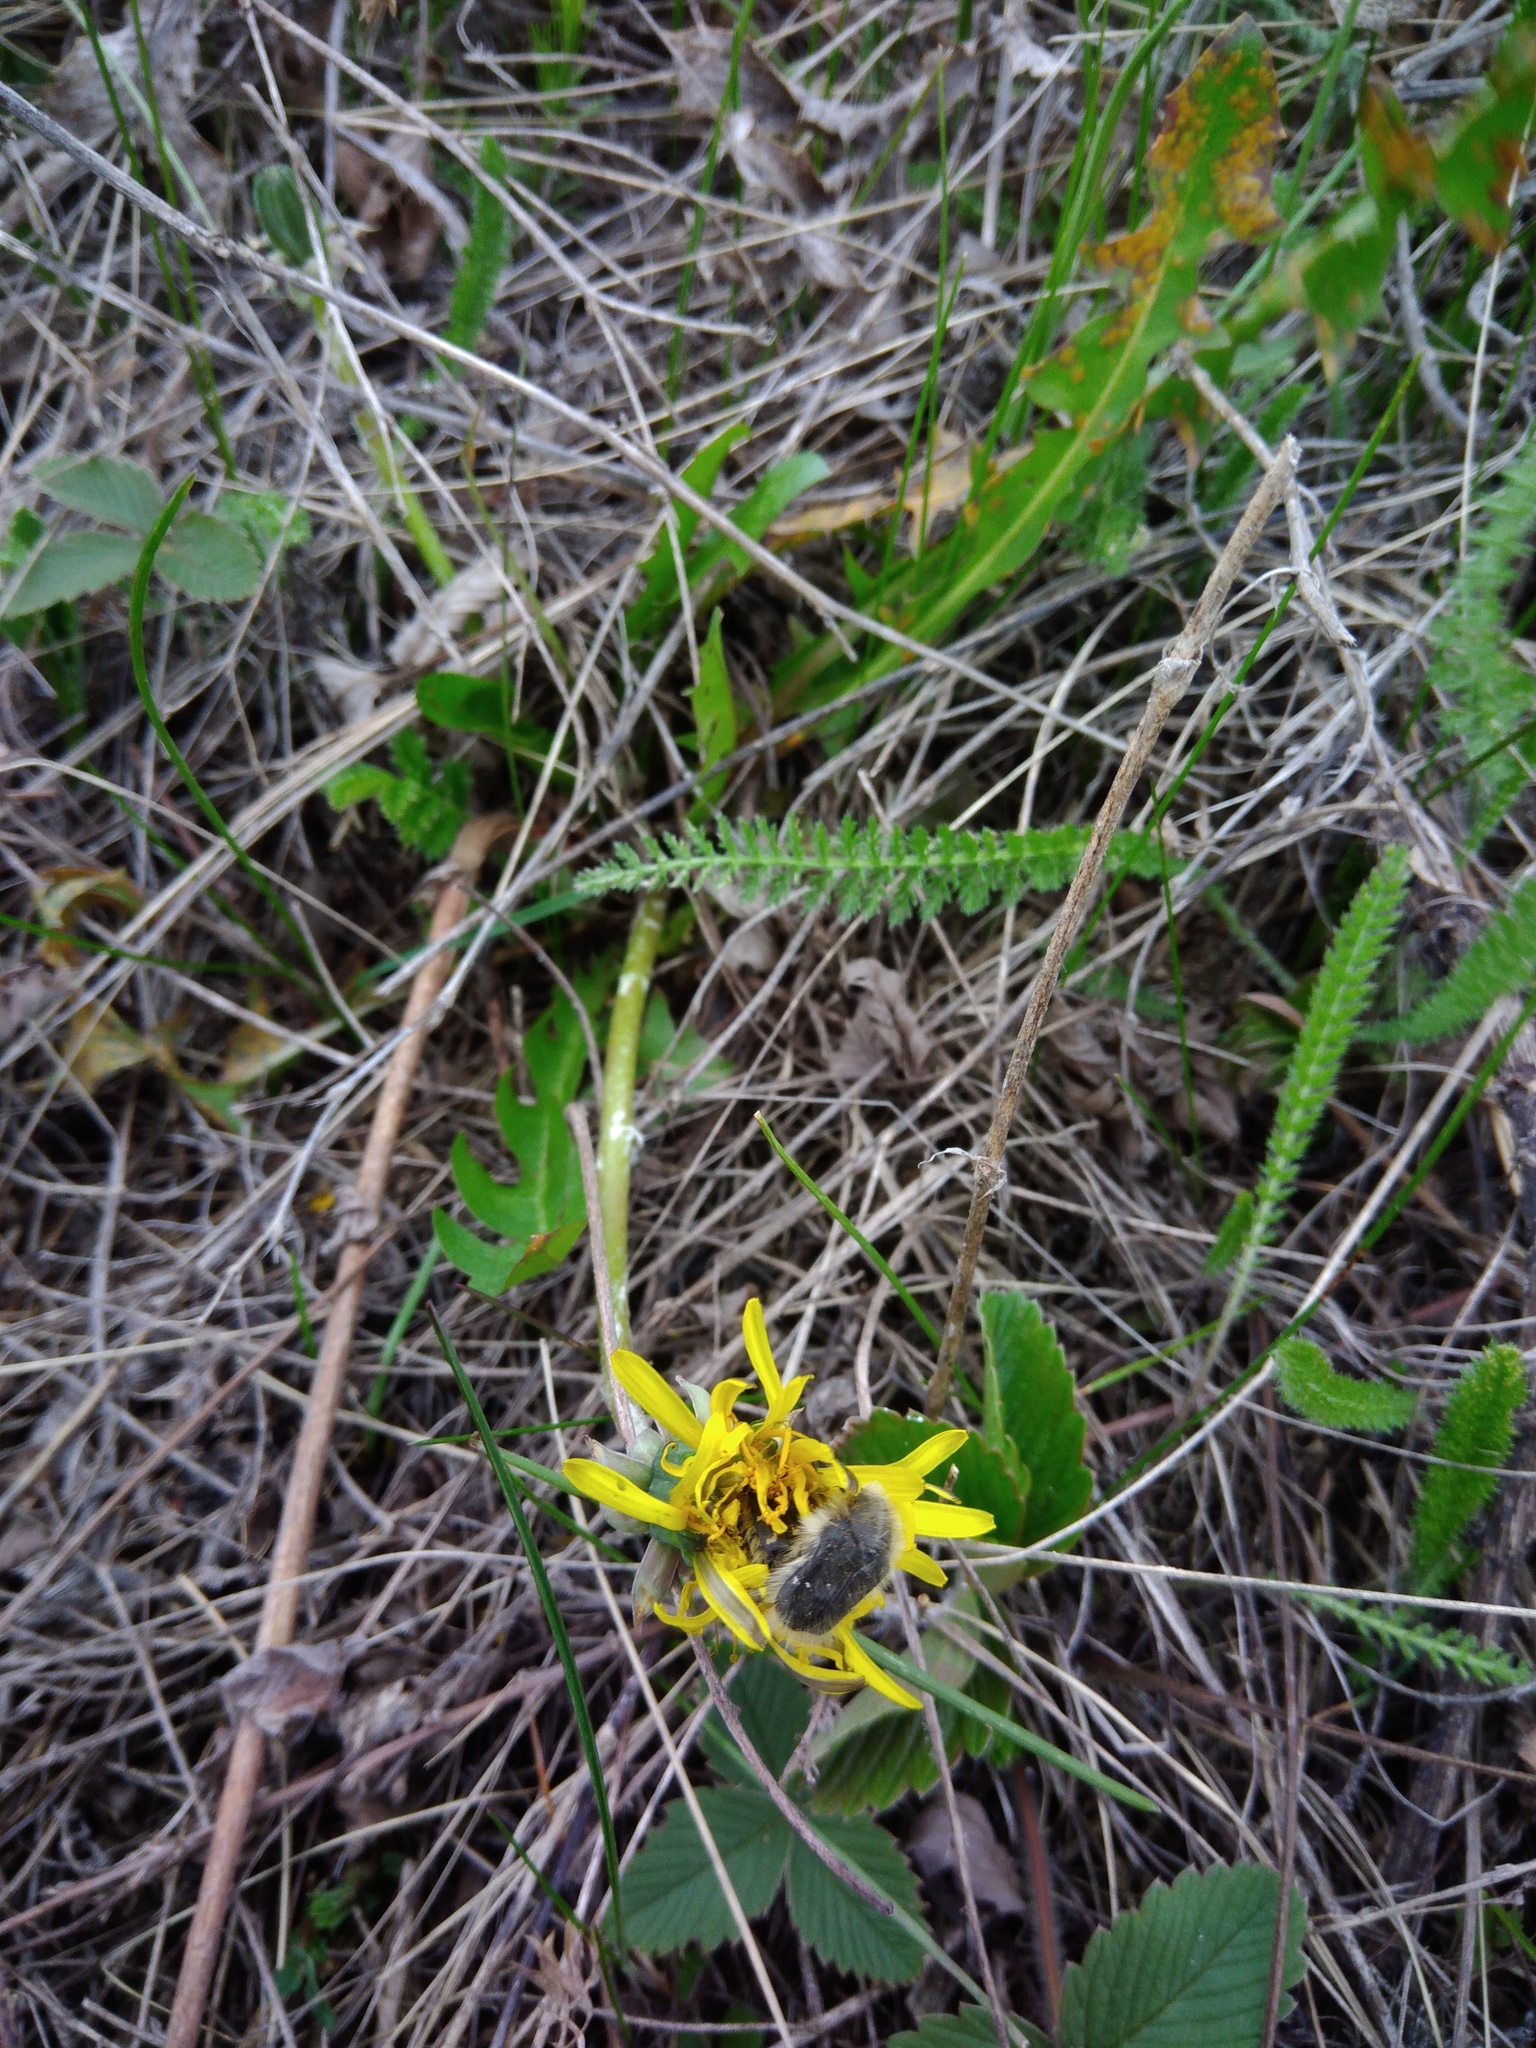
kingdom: Animalia
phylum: Arthropoda
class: Insecta
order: Coleoptera
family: Scarabaeidae
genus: Tropinota
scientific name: Tropinota hirta
